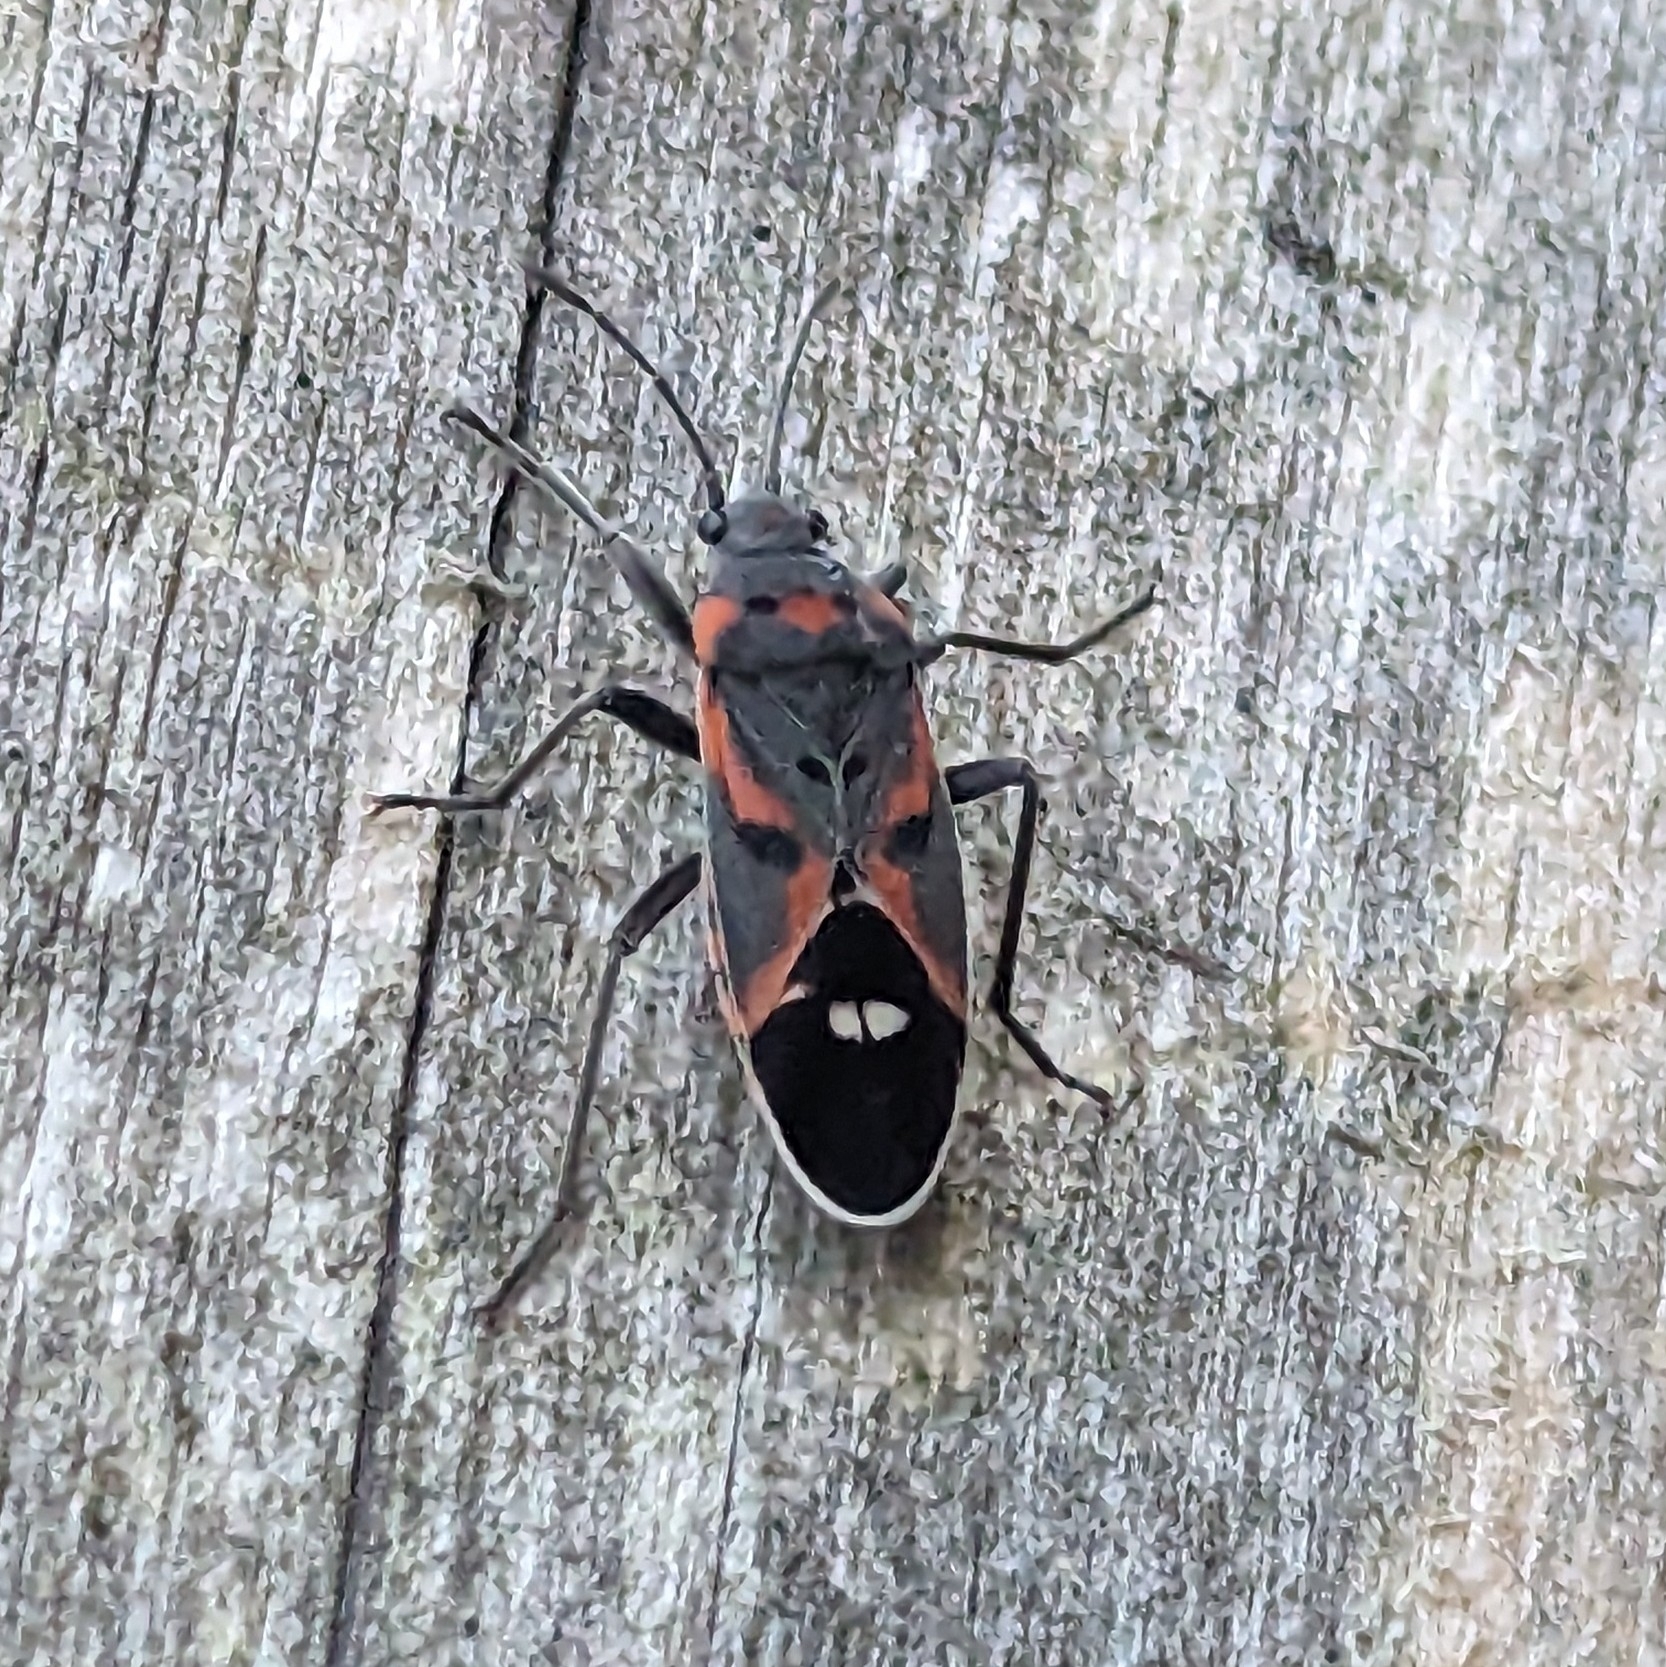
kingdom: Animalia
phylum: Arthropoda
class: Insecta
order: Hemiptera
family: Lygaeidae
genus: Lygaeus
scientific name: Lygaeus kalmii
